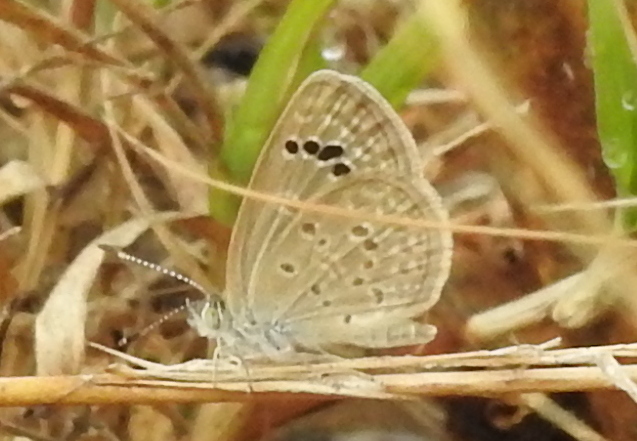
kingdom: Animalia
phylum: Arthropoda
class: Insecta
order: Lepidoptera
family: Lycaenidae
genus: Zizina
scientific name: Zizina otis
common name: Lesser grass blue
